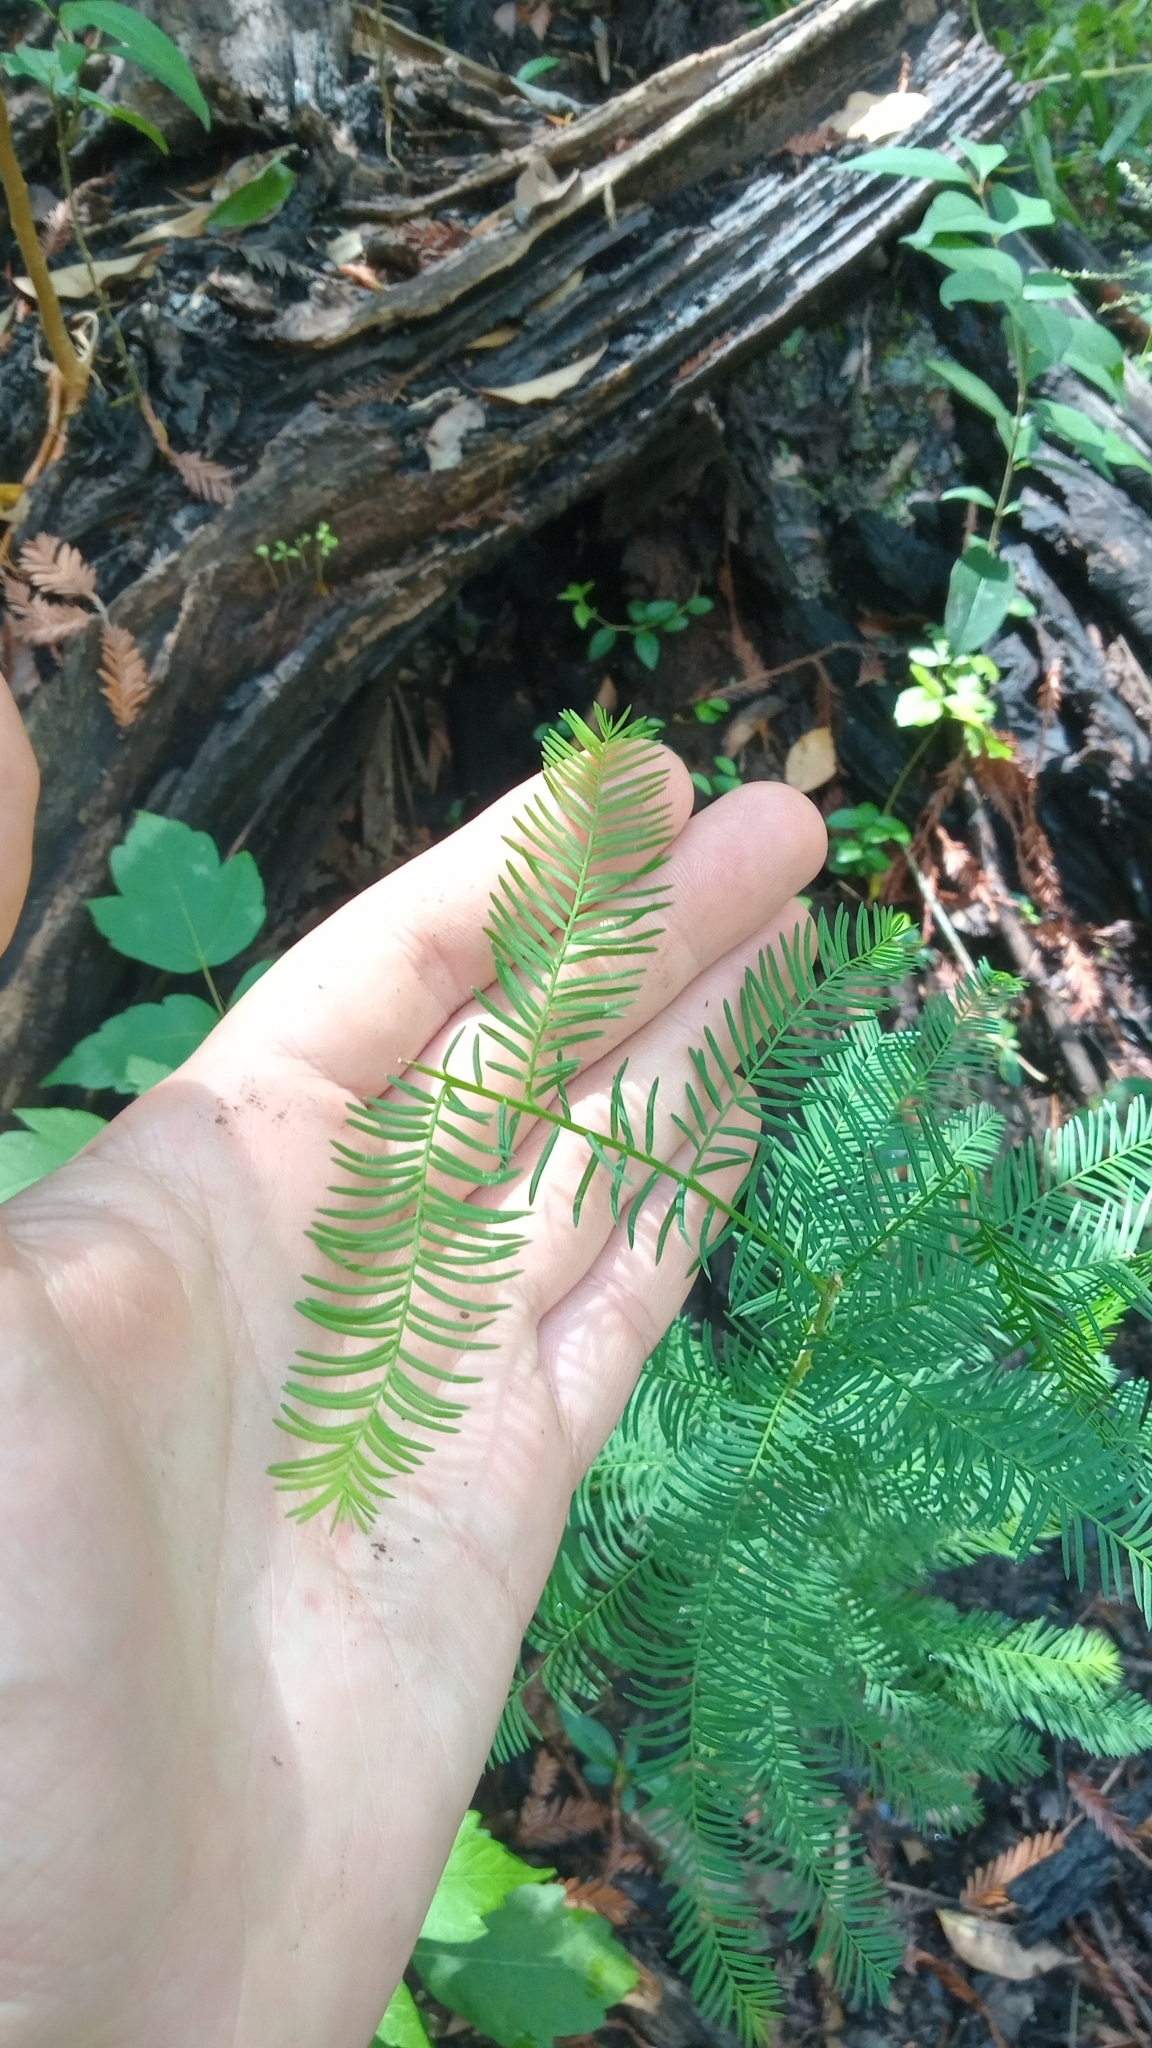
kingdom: Plantae
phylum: Tracheophyta
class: Pinopsida
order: Pinales
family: Cupressaceae
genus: Taxodium
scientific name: Taxodium distichum
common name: Bald cypress
